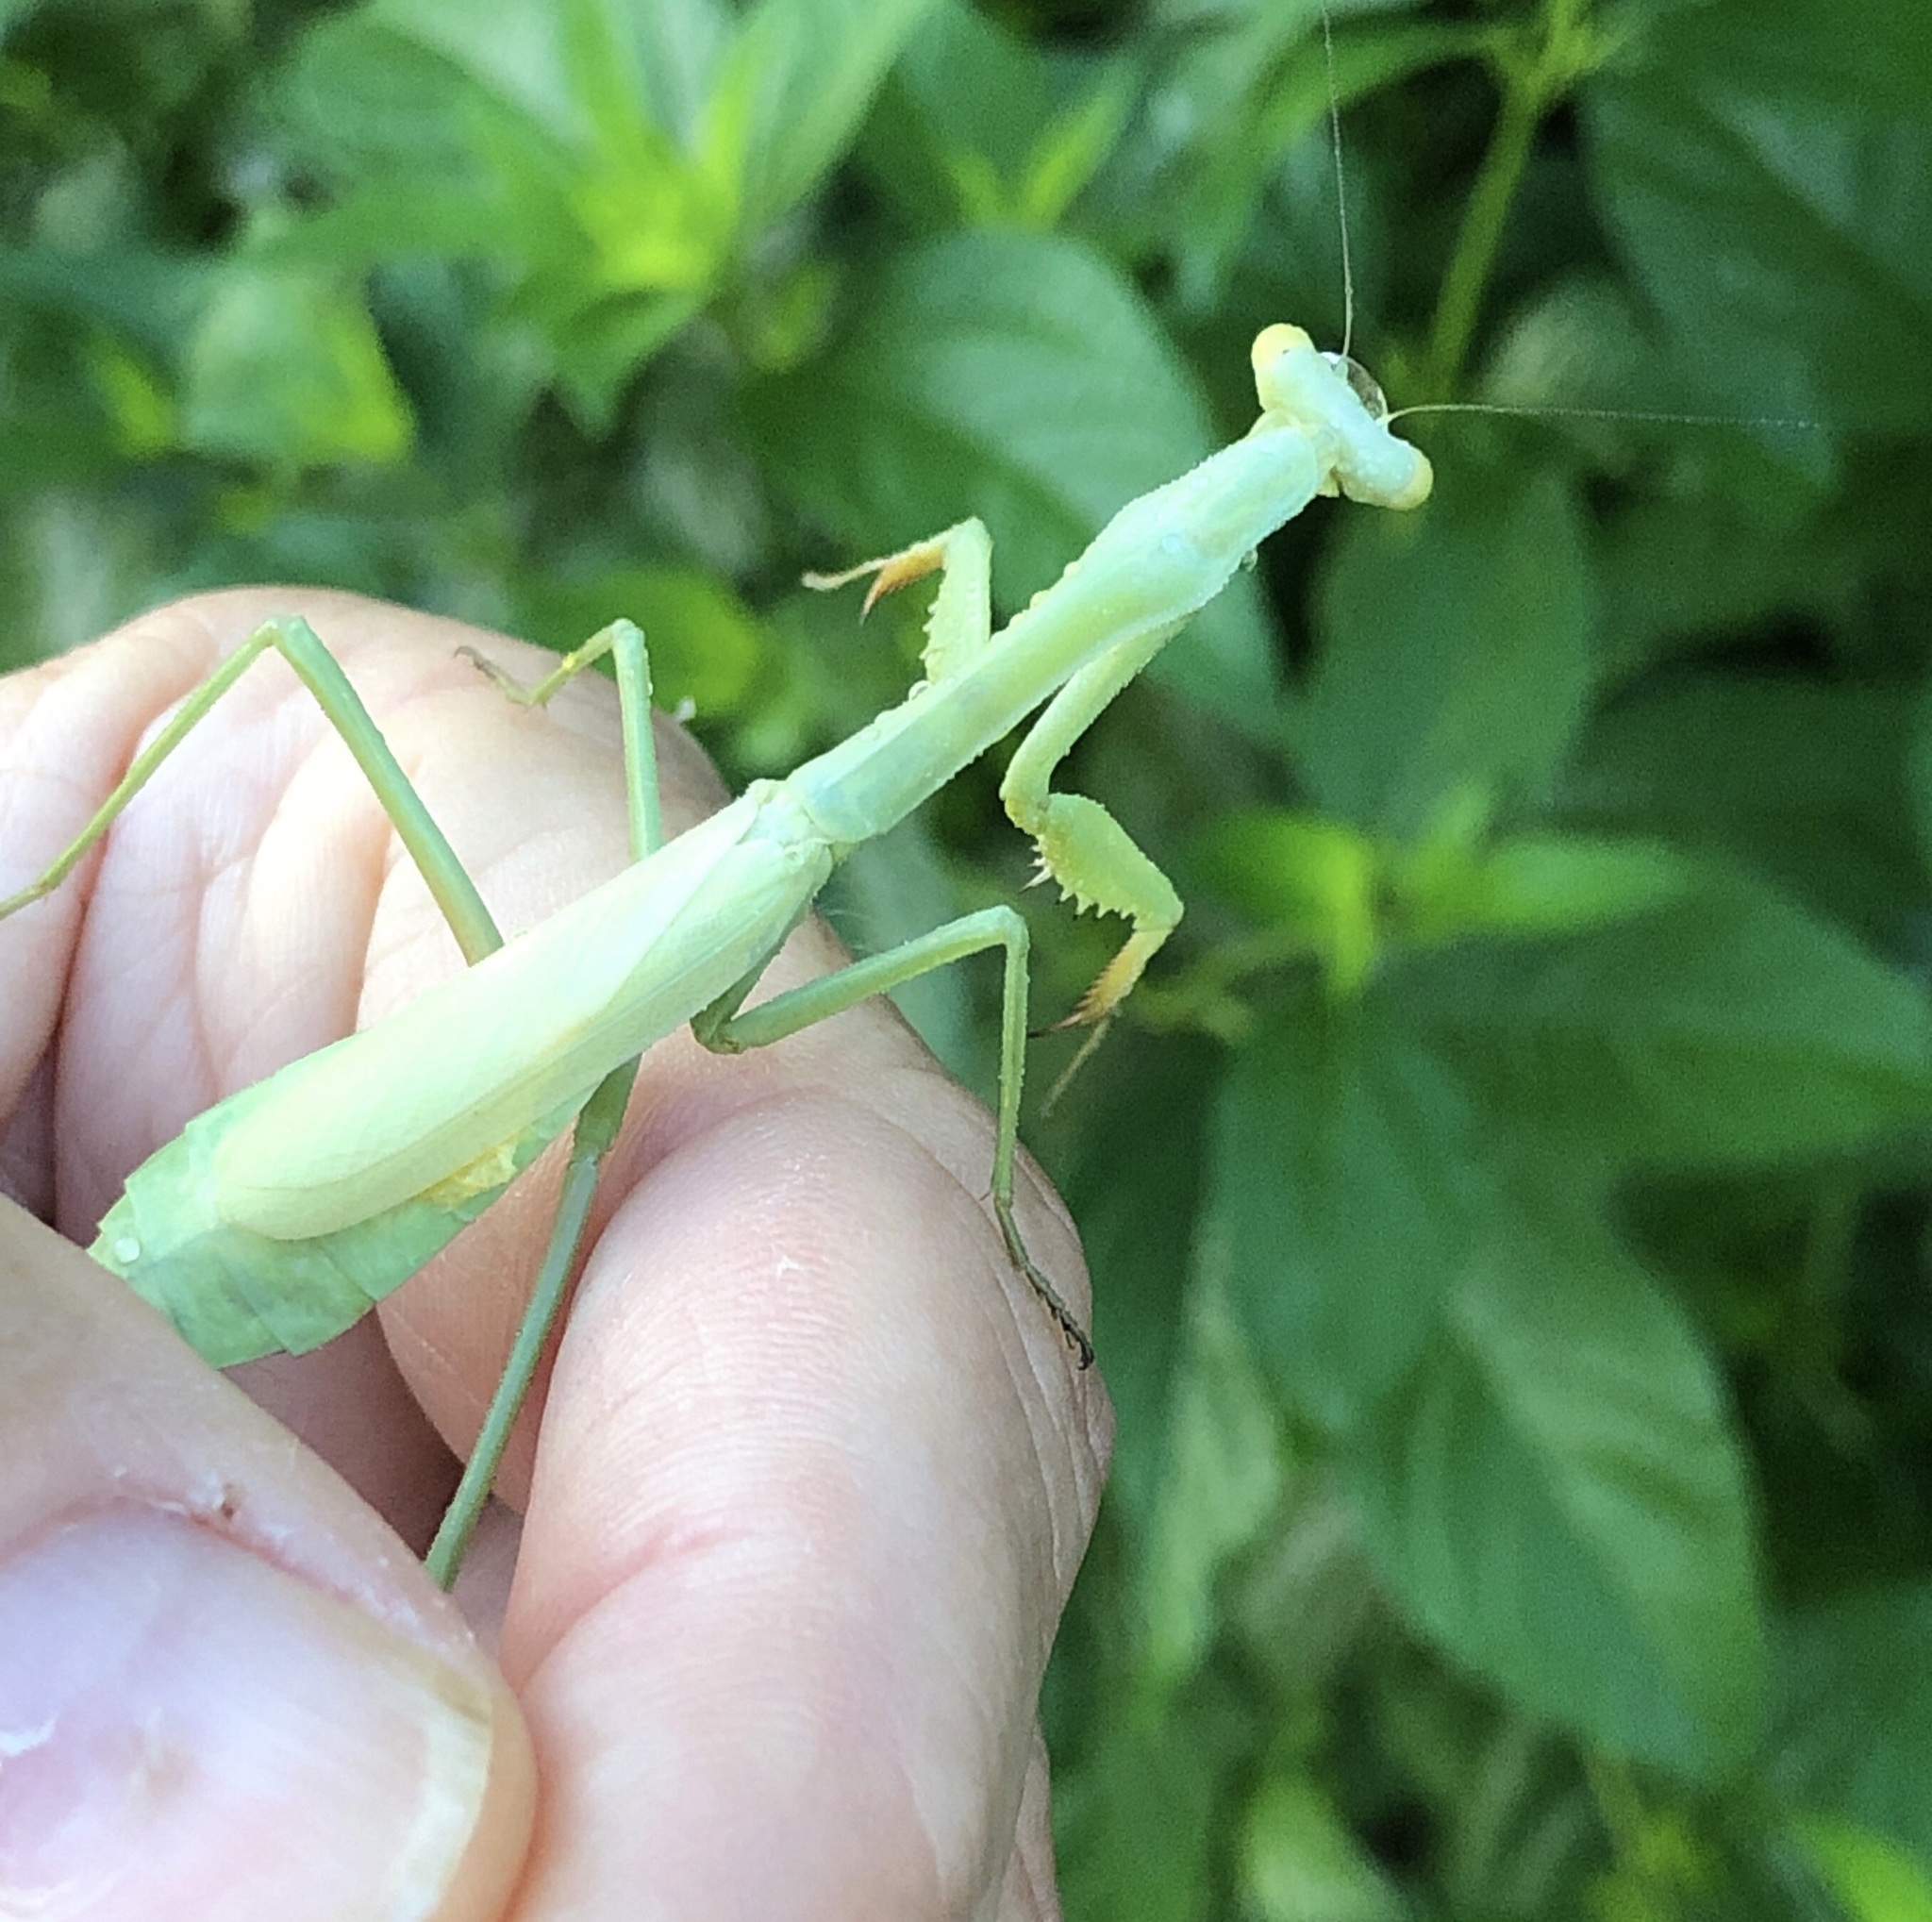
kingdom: Animalia
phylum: Arthropoda
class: Insecta
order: Mantodea
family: Mantidae
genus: Stagmomantis
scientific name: Stagmomantis carolina
